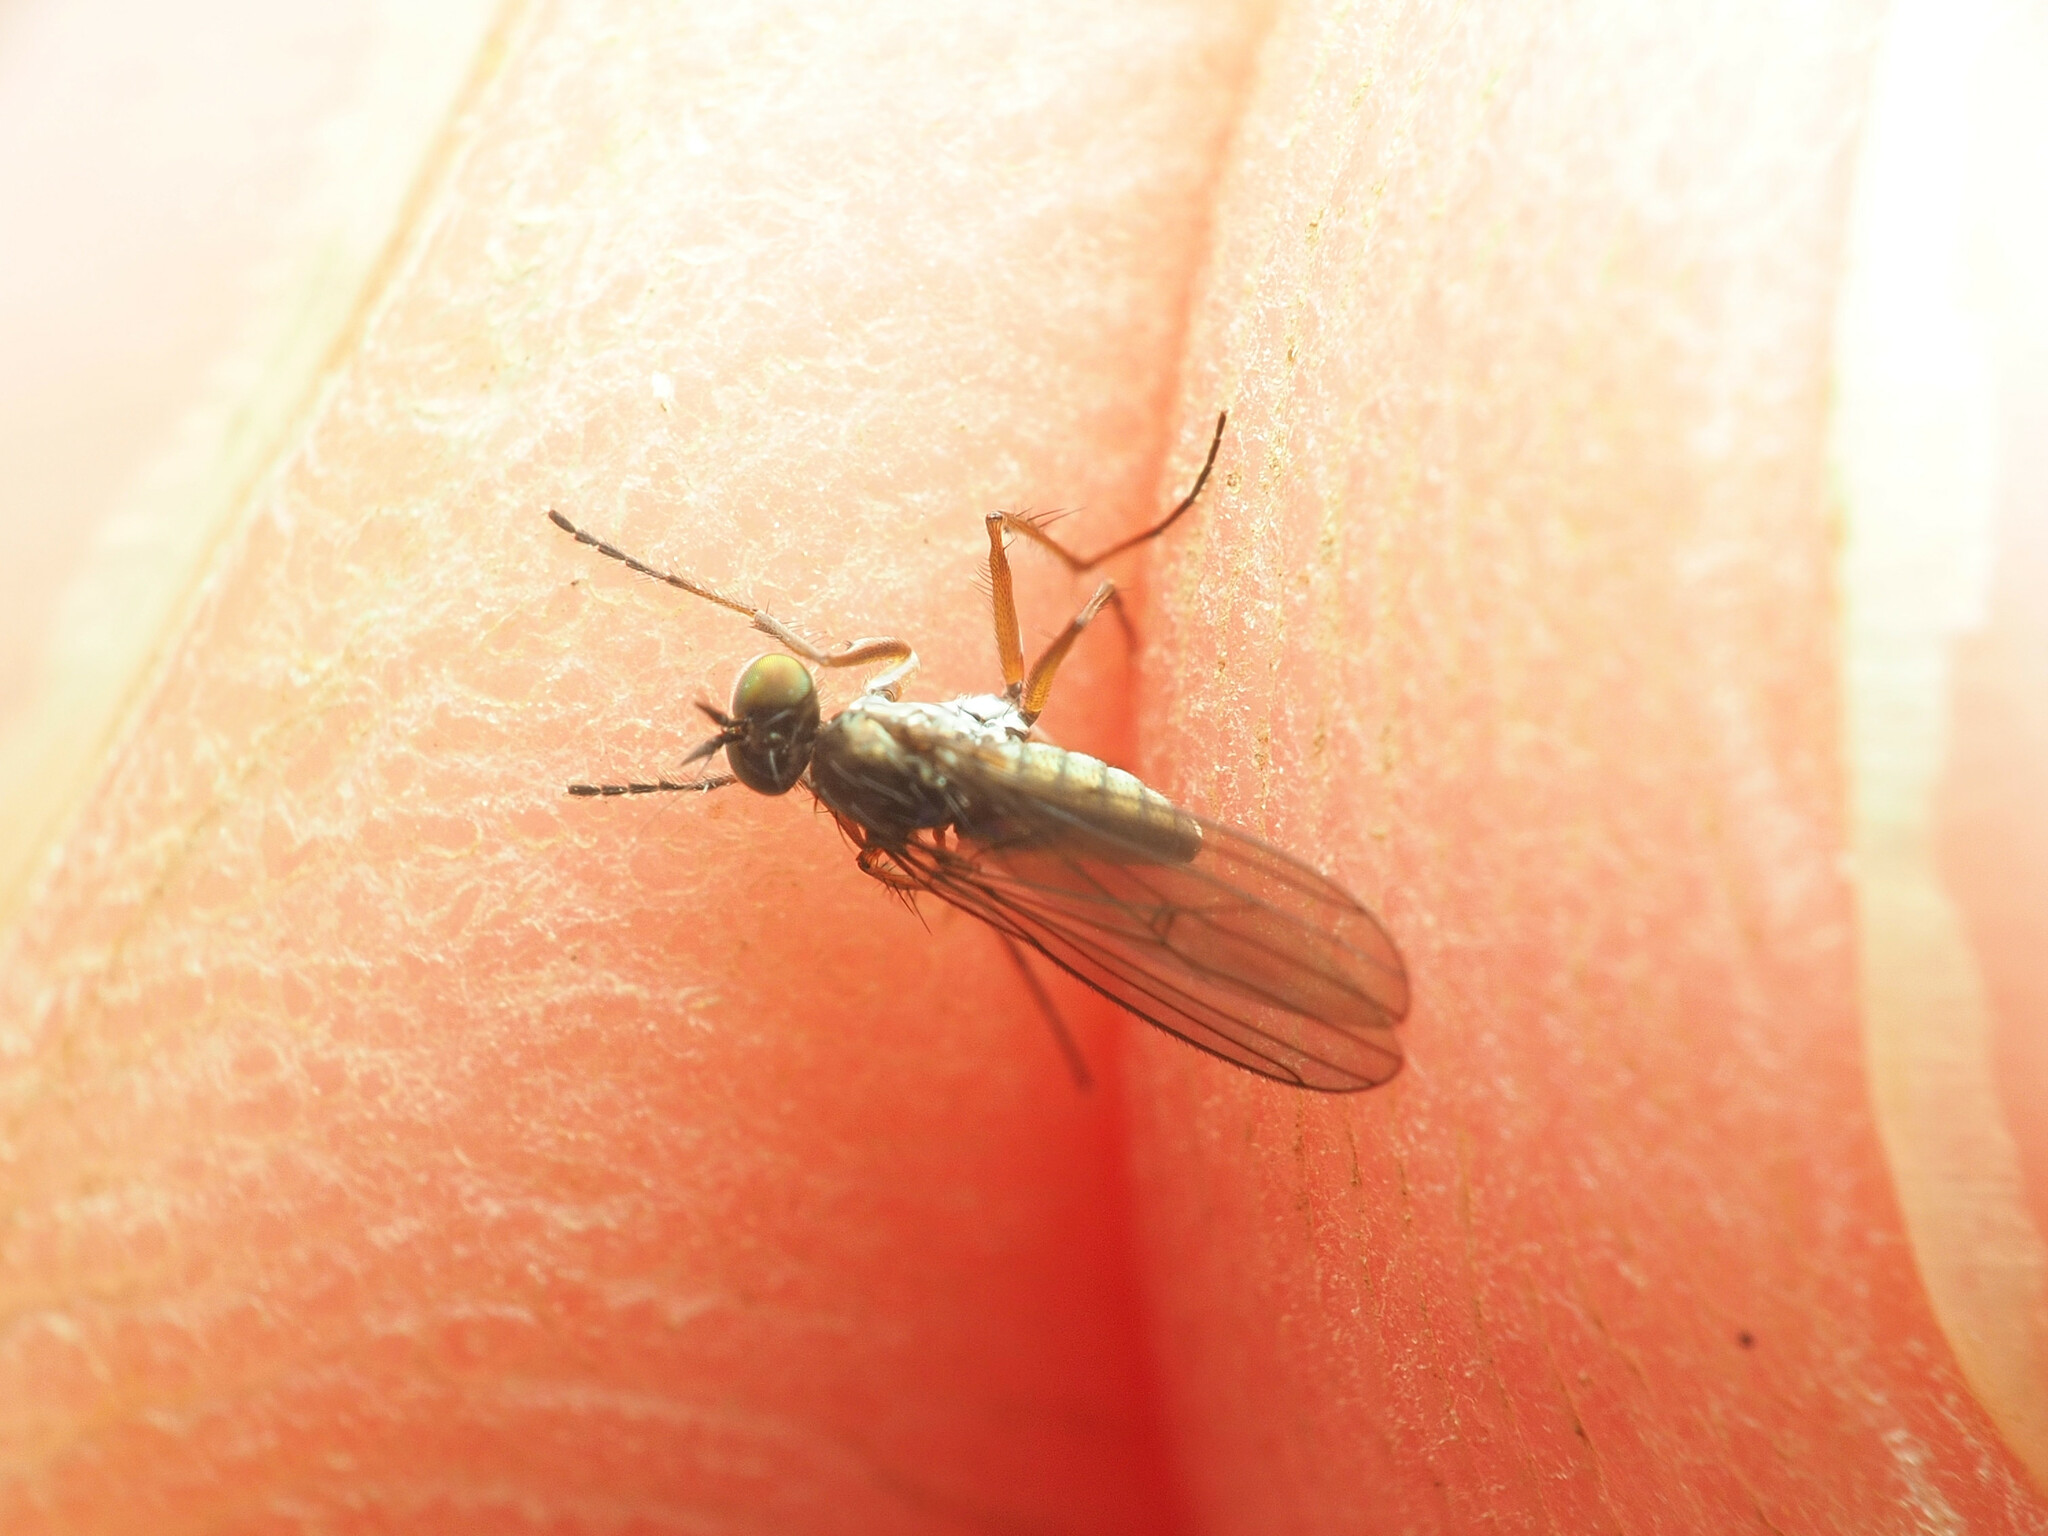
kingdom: Animalia
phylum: Arthropoda
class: Insecta
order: Diptera
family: Dolichopodidae
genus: Campsicnemus
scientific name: Campsicnemus hirtipes
